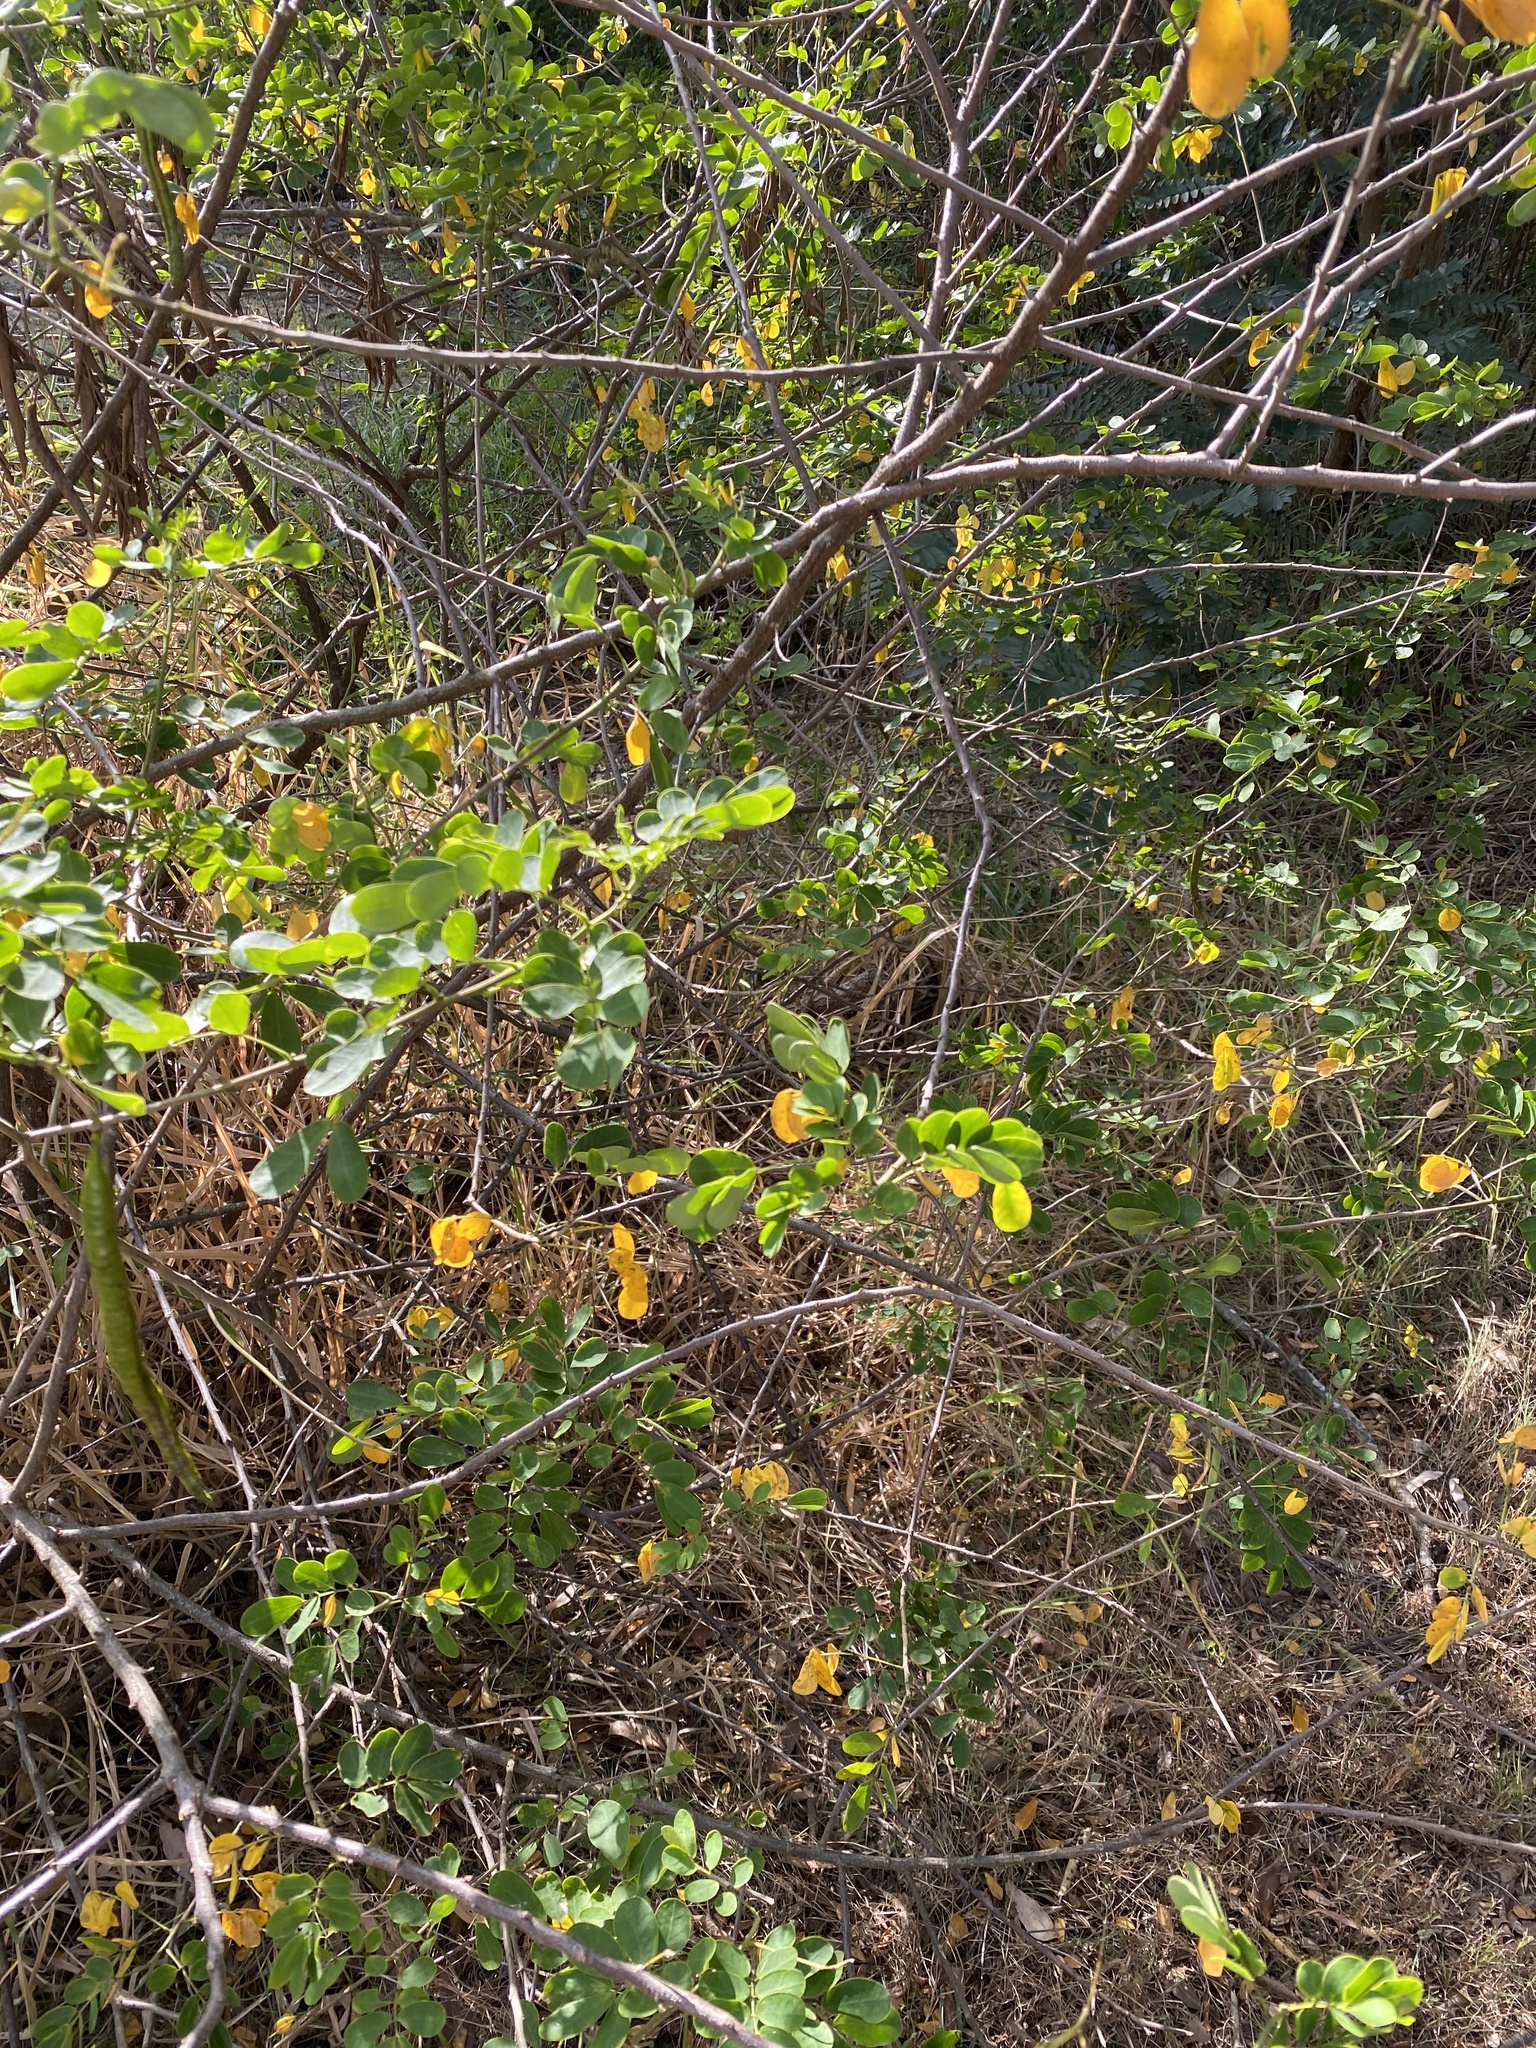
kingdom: Plantae
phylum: Tracheophyta
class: Magnoliopsida
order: Fabales
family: Fabaceae
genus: Senna
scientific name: Senna pendula
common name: Easter cassia
